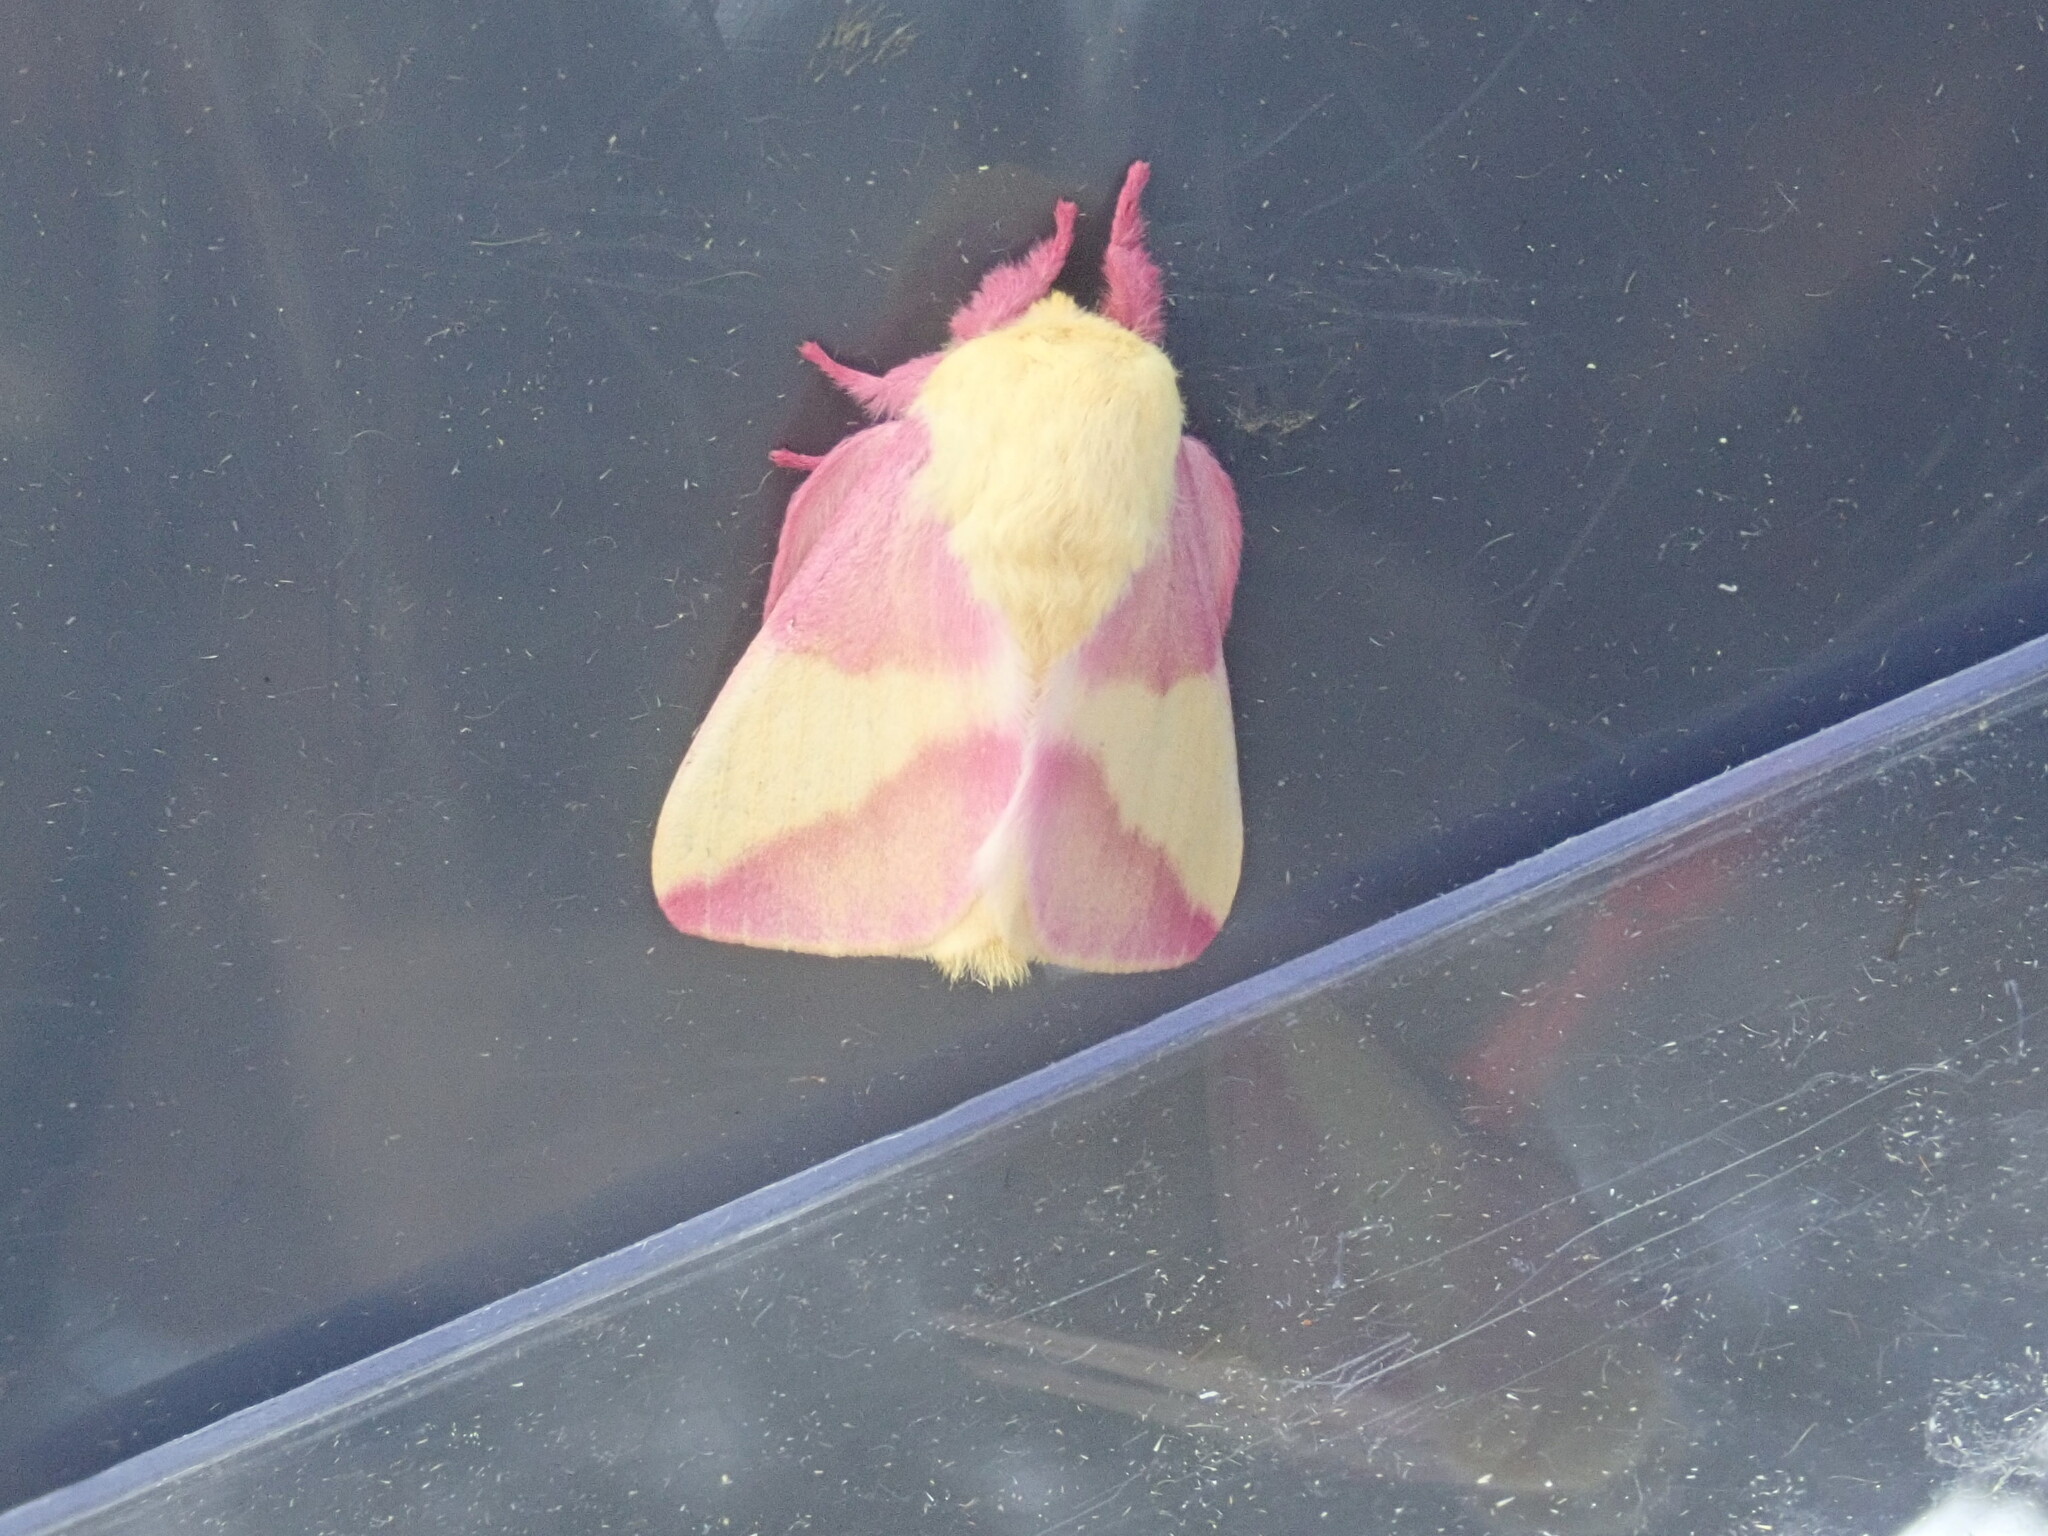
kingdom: Animalia
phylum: Arthropoda
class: Insecta
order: Lepidoptera
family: Saturniidae
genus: Dryocampa
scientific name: Dryocampa rubicunda
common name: Rosy maple moth
